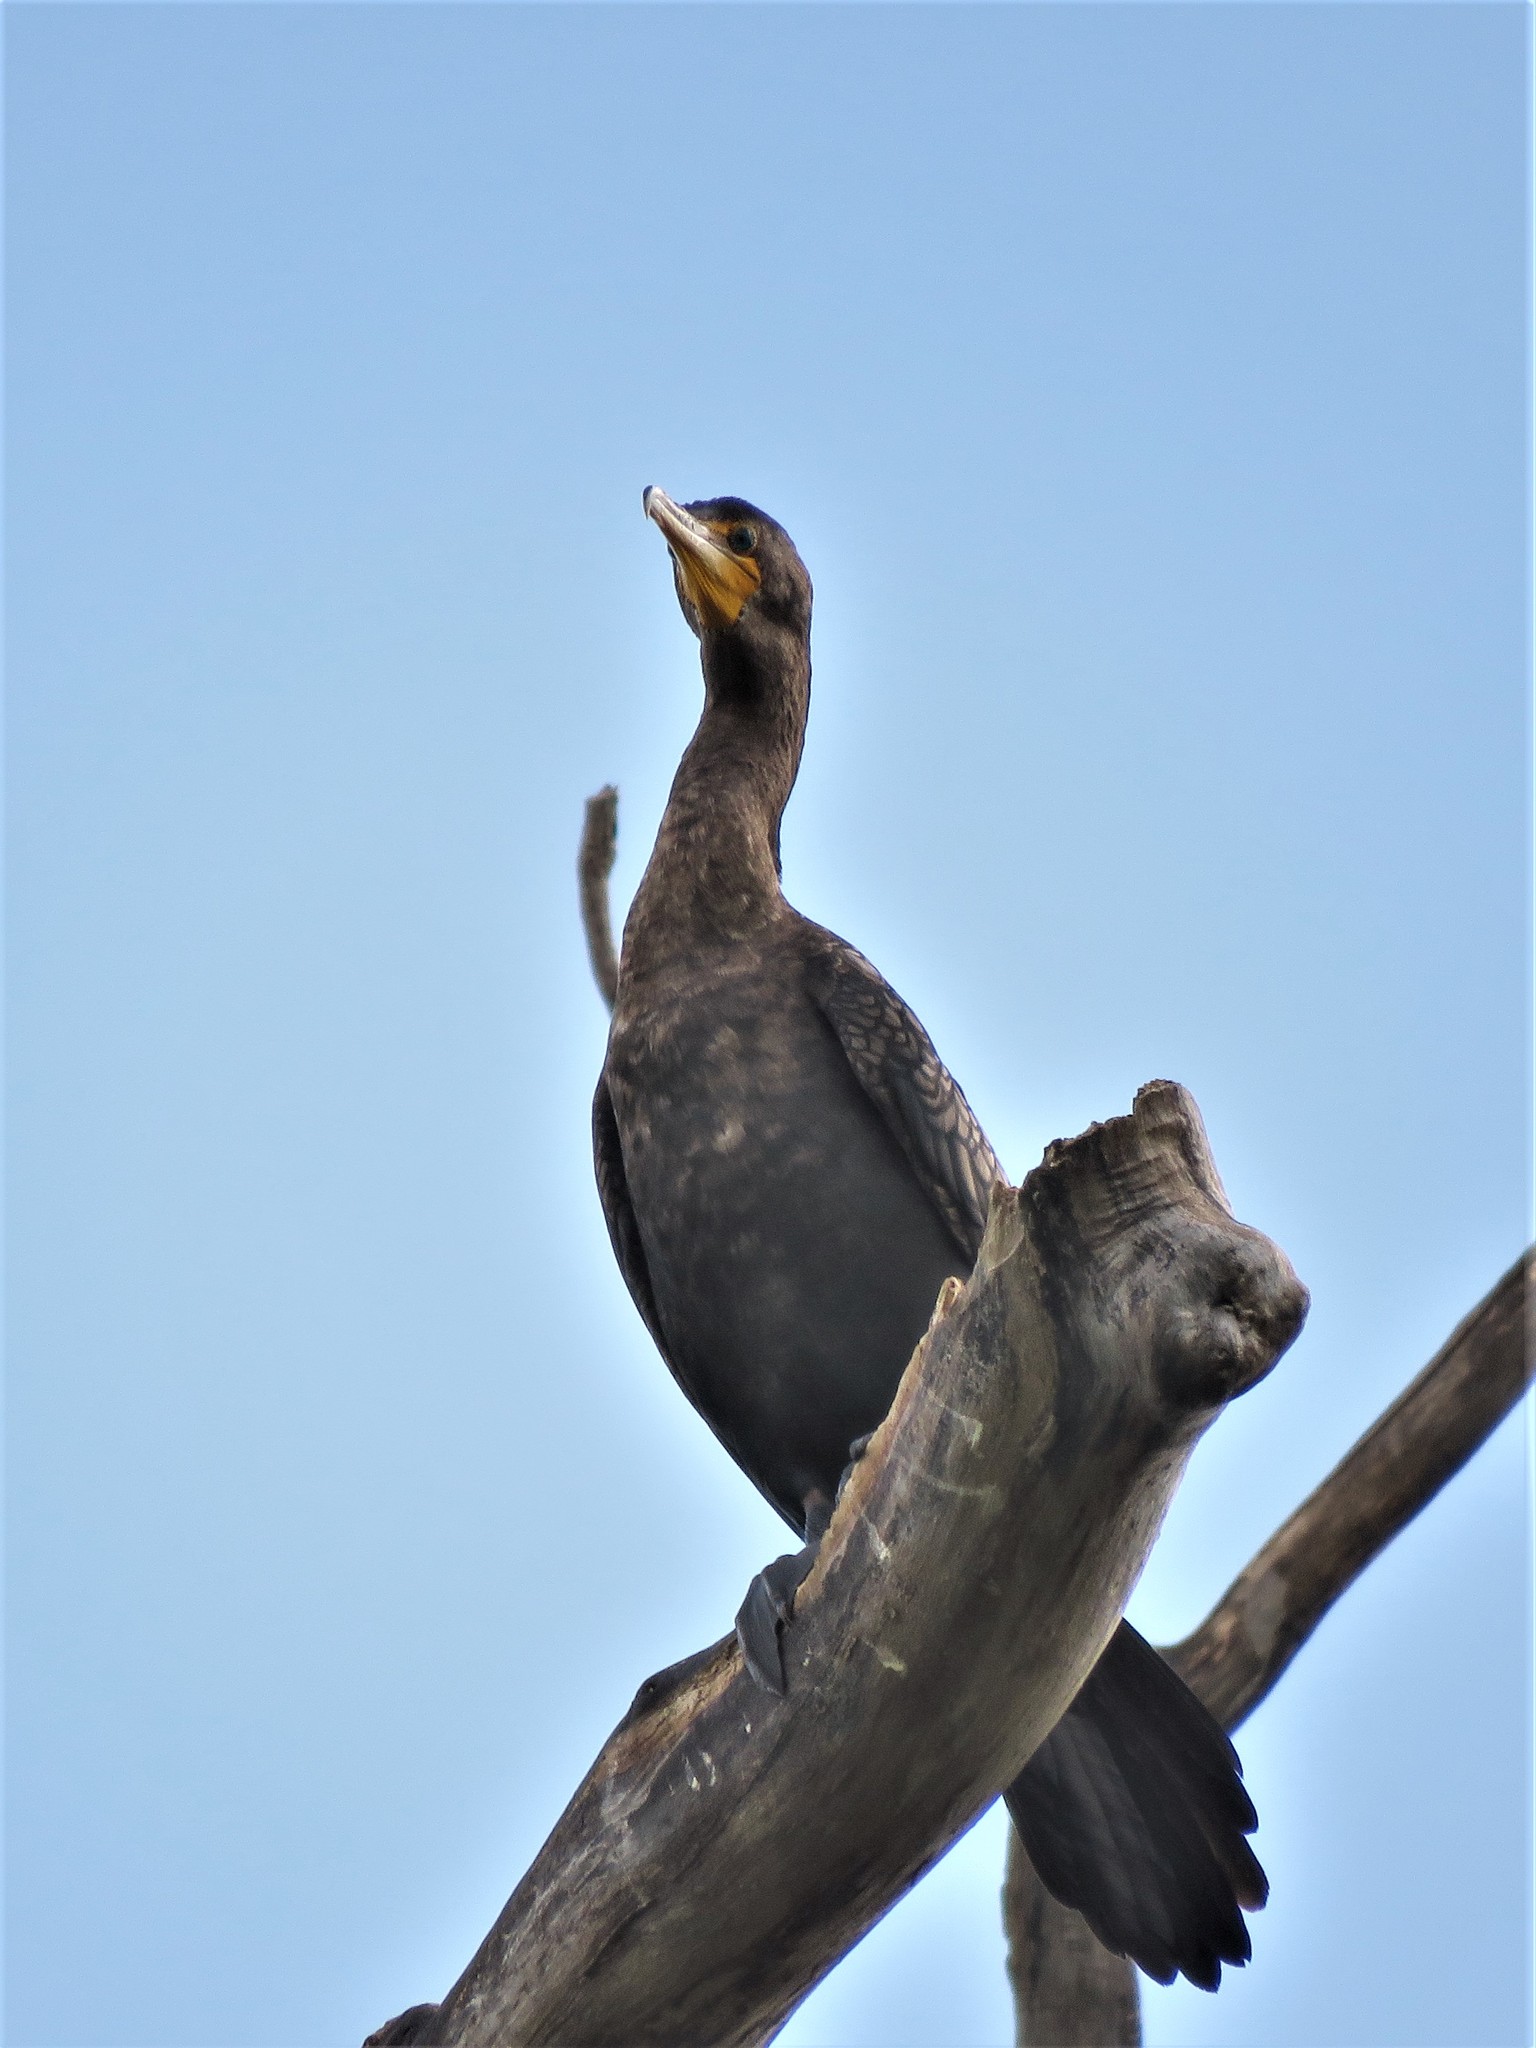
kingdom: Animalia
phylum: Chordata
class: Aves
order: Suliformes
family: Phalacrocoracidae
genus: Phalacrocorax
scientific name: Phalacrocorax auritus
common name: Double-crested cormorant
